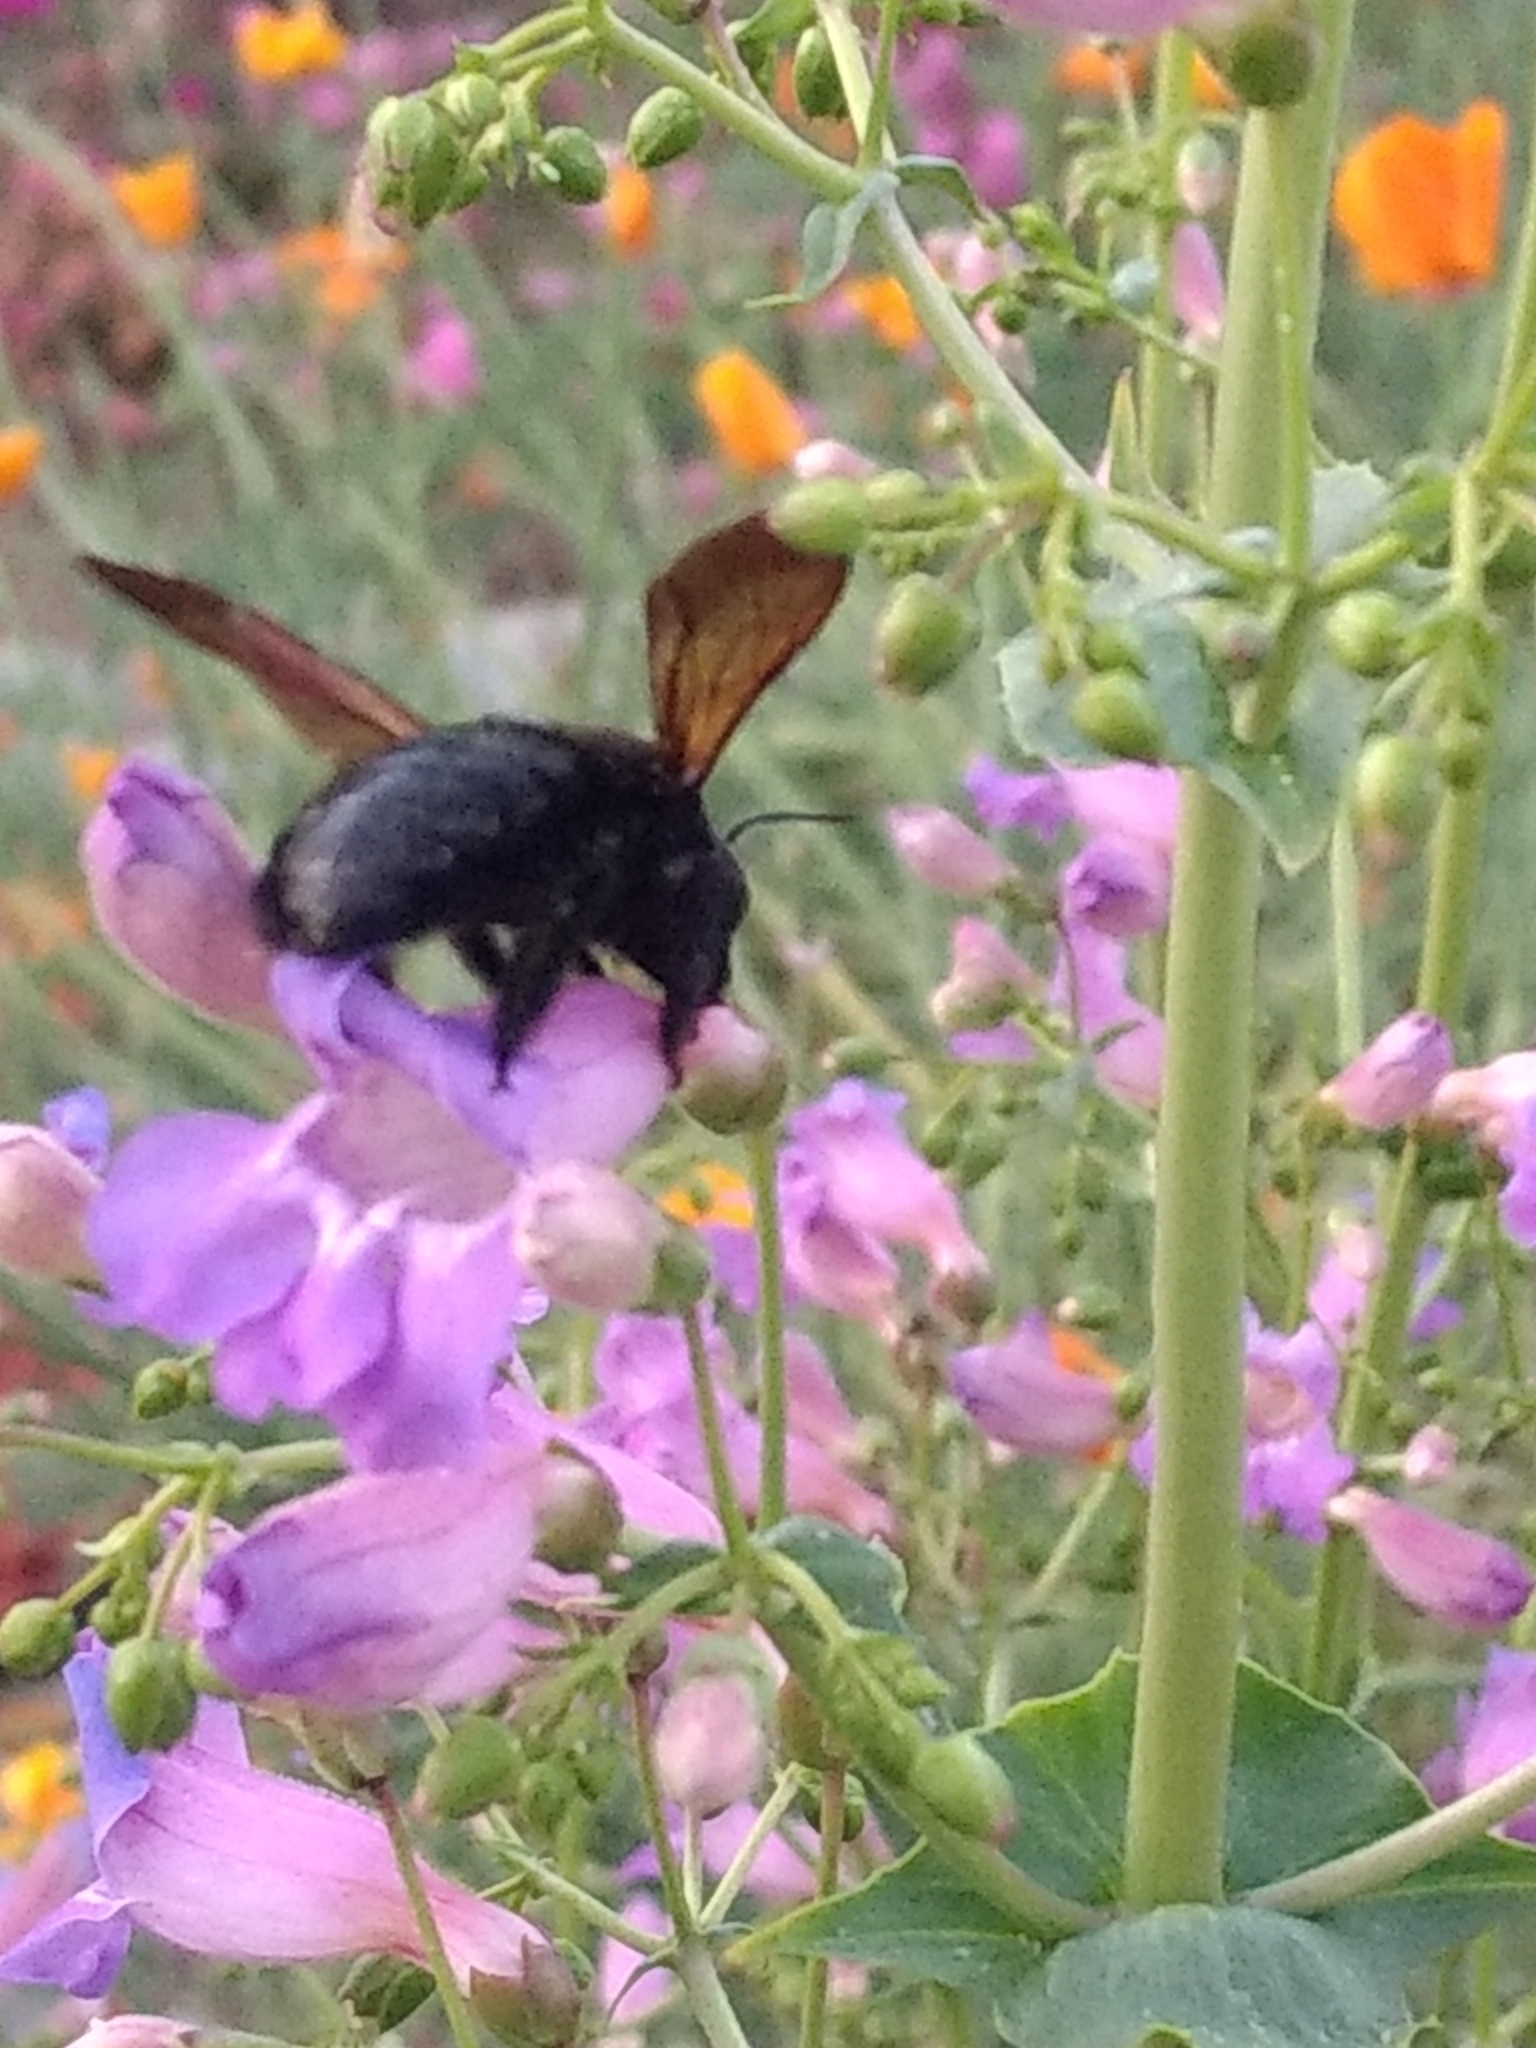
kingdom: Animalia
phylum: Arthropoda
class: Insecta
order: Hymenoptera
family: Apidae
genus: Xylocopa
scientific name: Xylocopa sonorina
